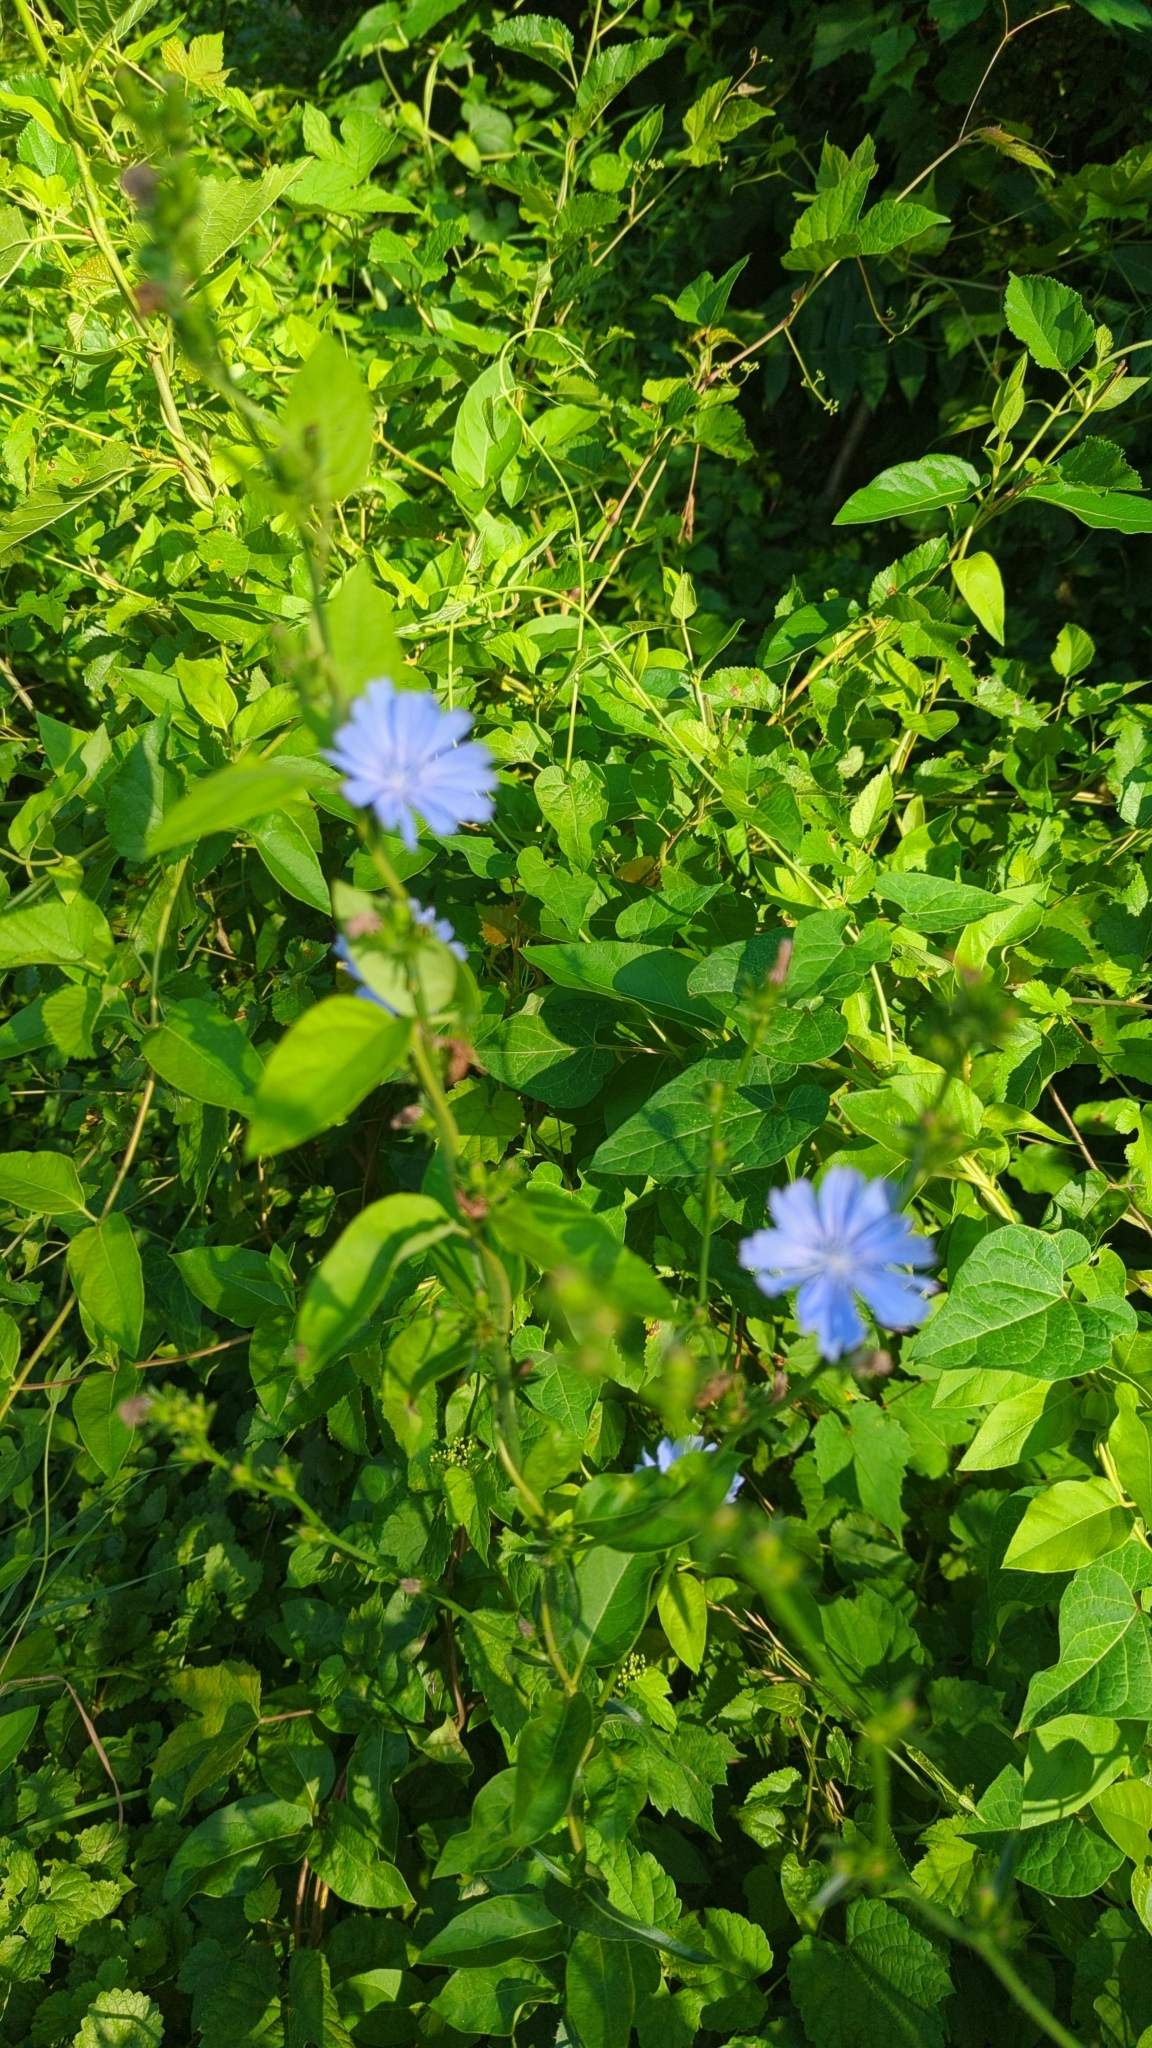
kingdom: Plantae
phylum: Tracheophyta
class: Magnoliopsida
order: Asterales
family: Asteraceae
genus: Cichorium
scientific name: Cichorium intybus
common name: Chicory
